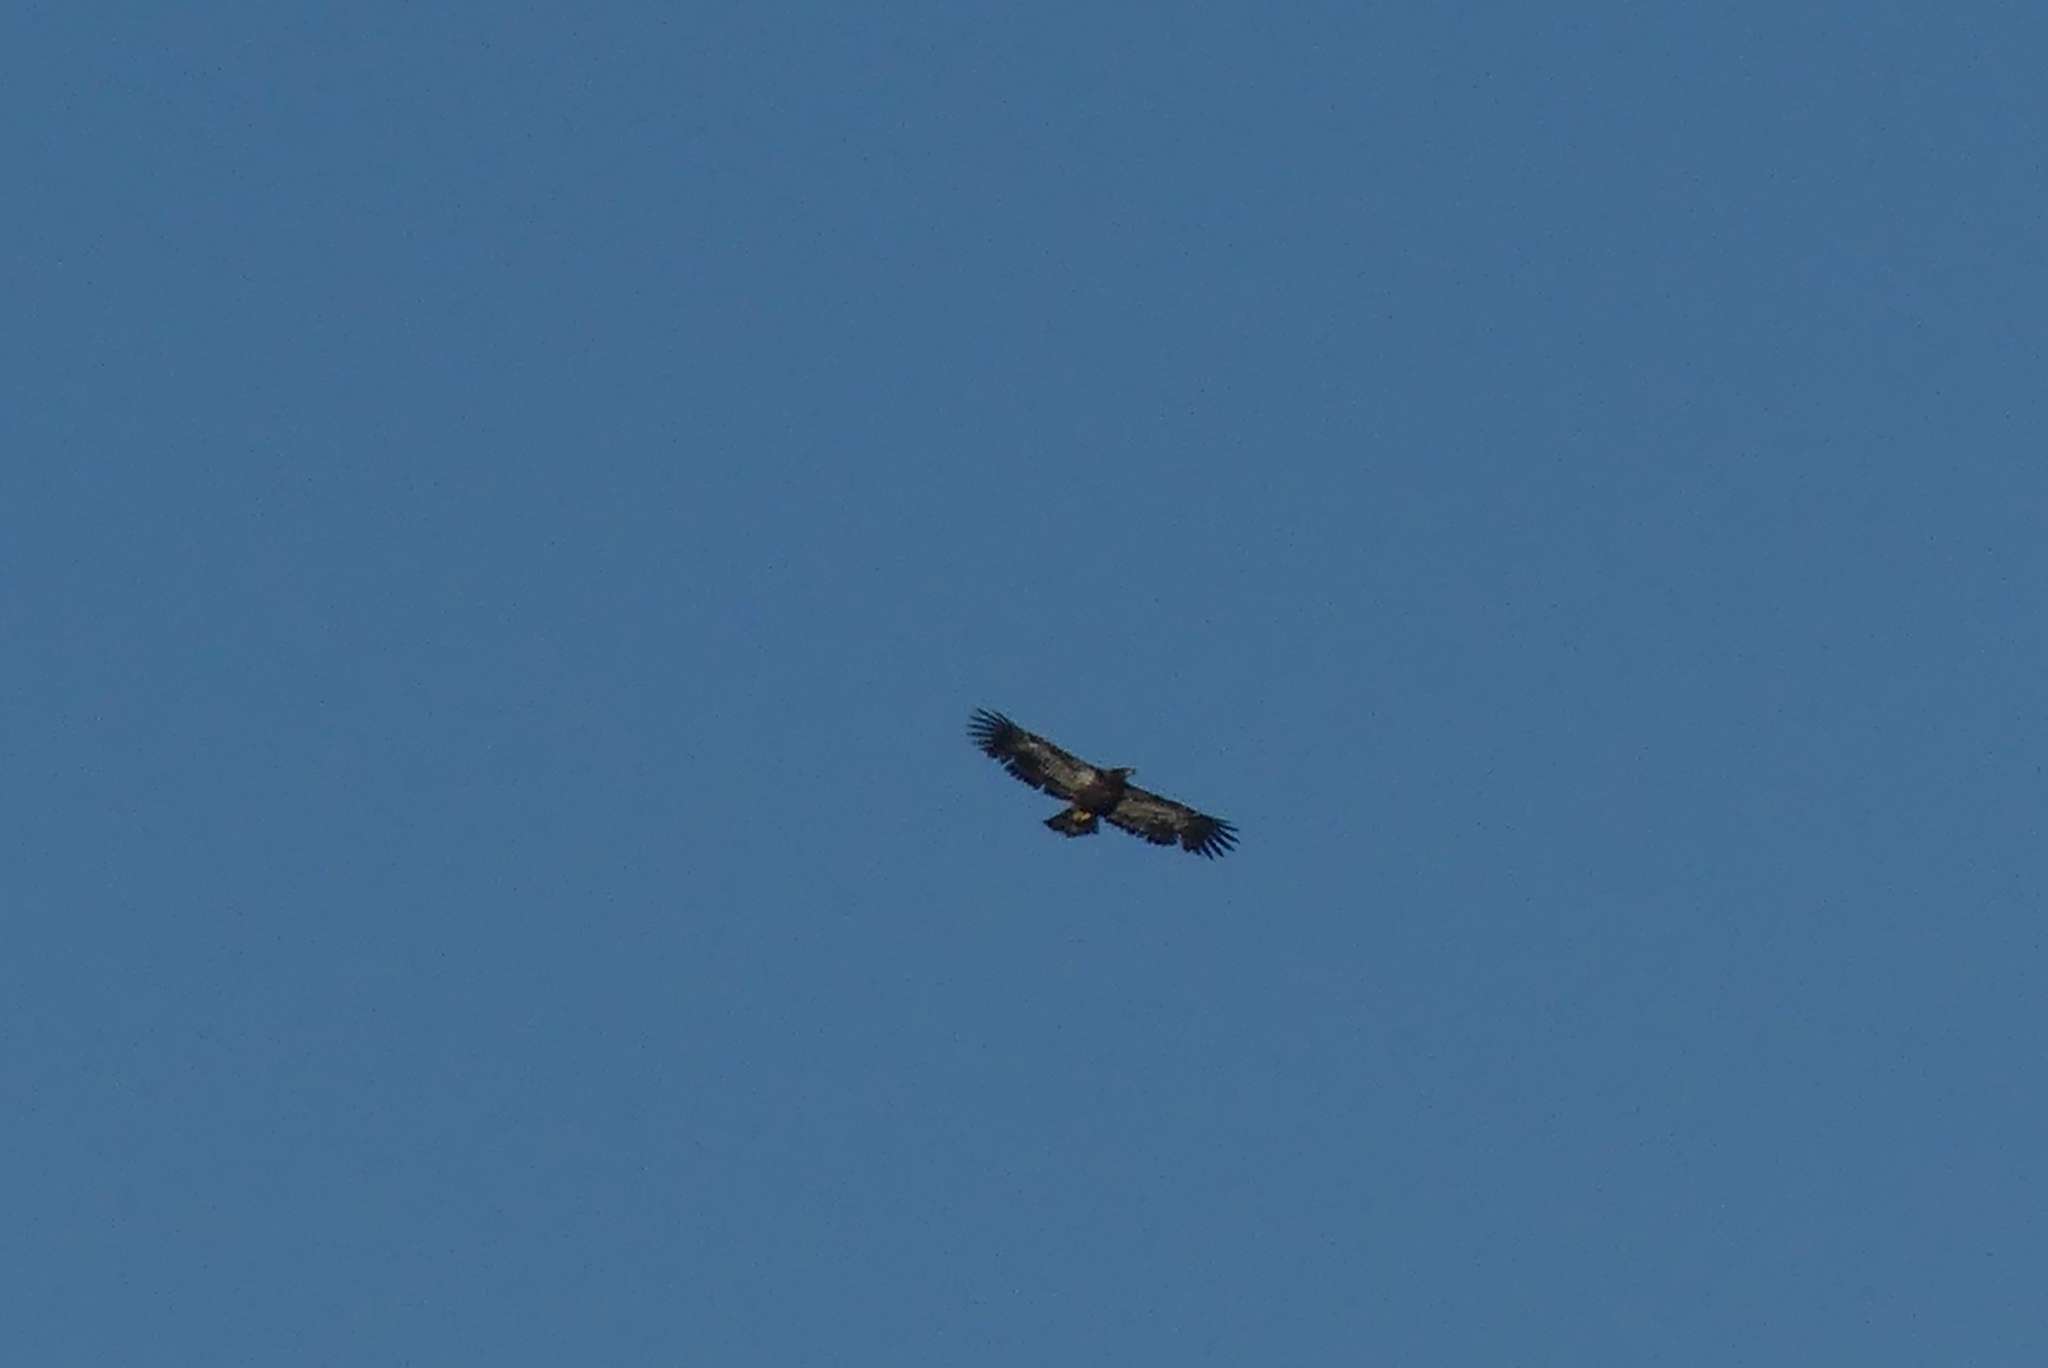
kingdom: Animalia
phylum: Chordata
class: Aves
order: Accipitriformes
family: Accipitridae
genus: Haliaeetus
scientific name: Haliaeetus leucocephalus
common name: Bald eagle
